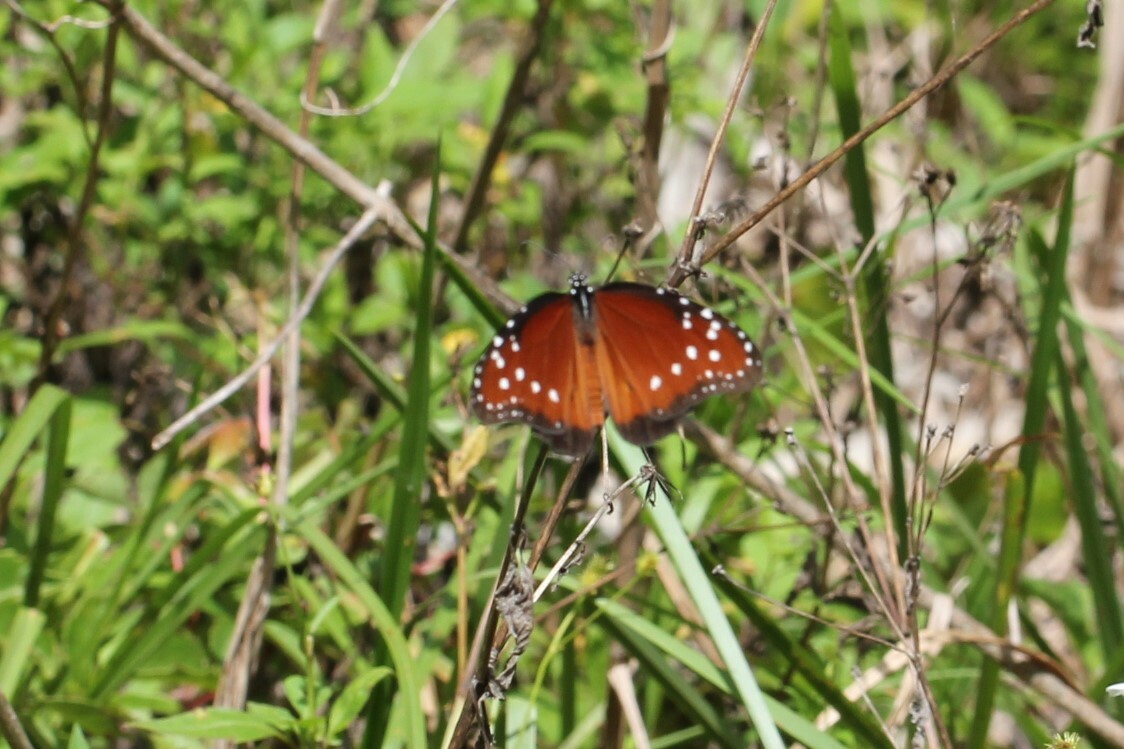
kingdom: Animalia
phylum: Arthropoda
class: Insecta
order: Lepidoptera
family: Nymphalidae
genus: Danaus
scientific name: Danaus gilippus
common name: Queen
